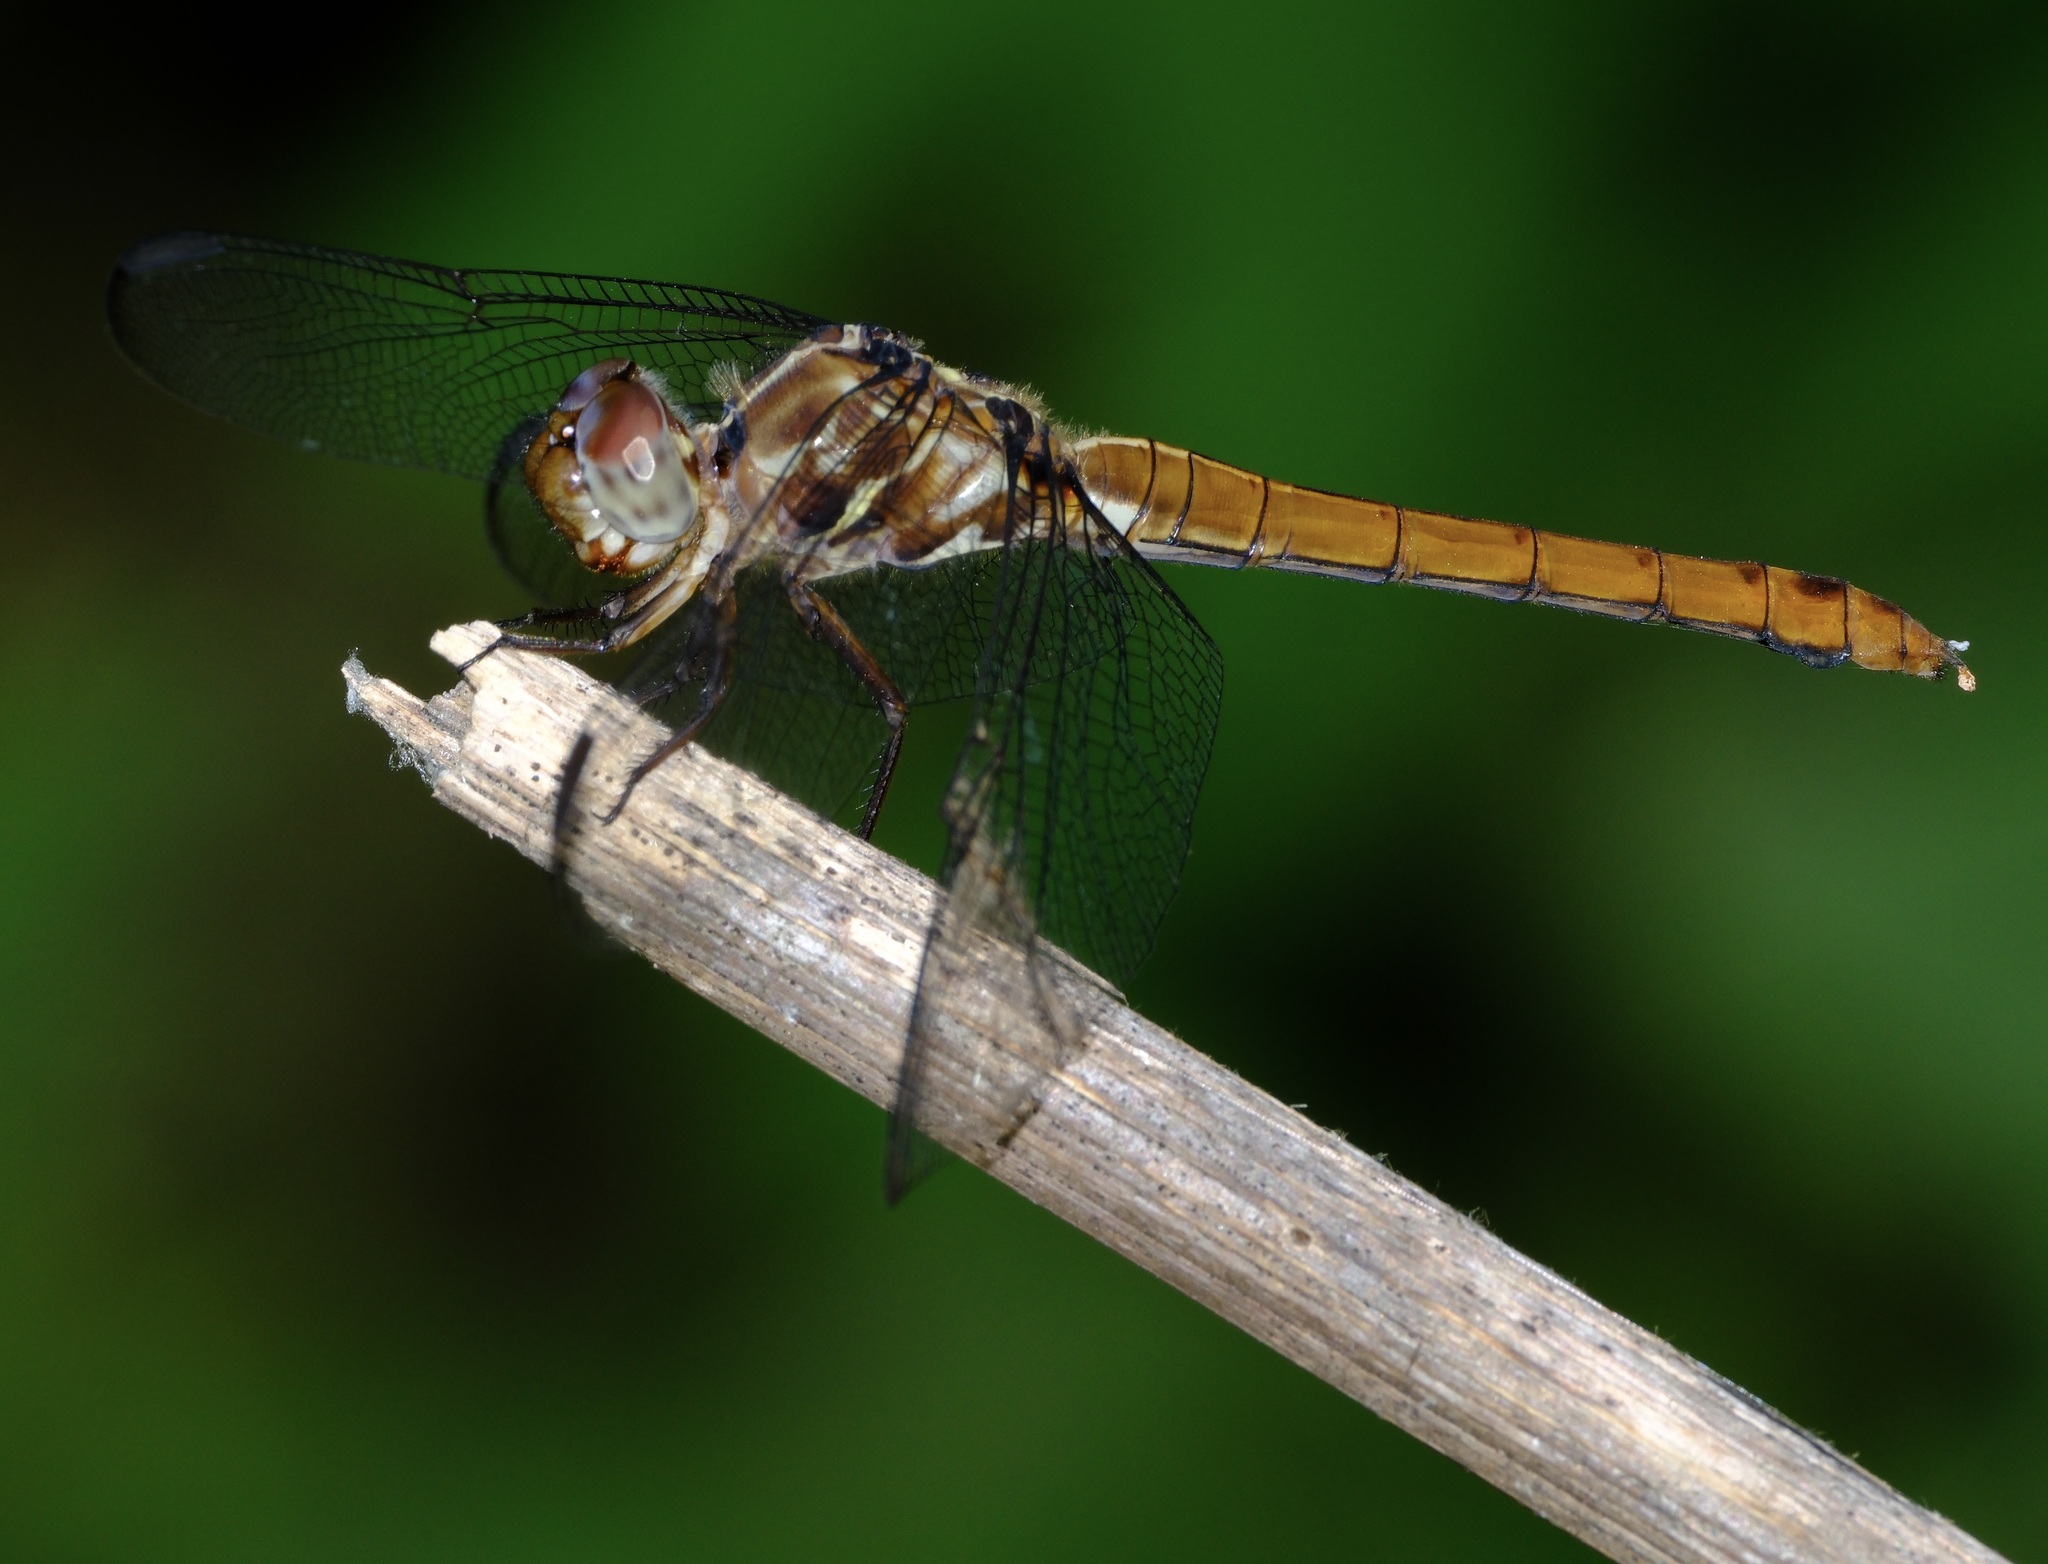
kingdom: Animalia
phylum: Arthropoda
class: Insecta
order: Odonata
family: Libellulidae
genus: Orthemis
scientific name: Orthemis ferruginea
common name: Roseate skimmer
